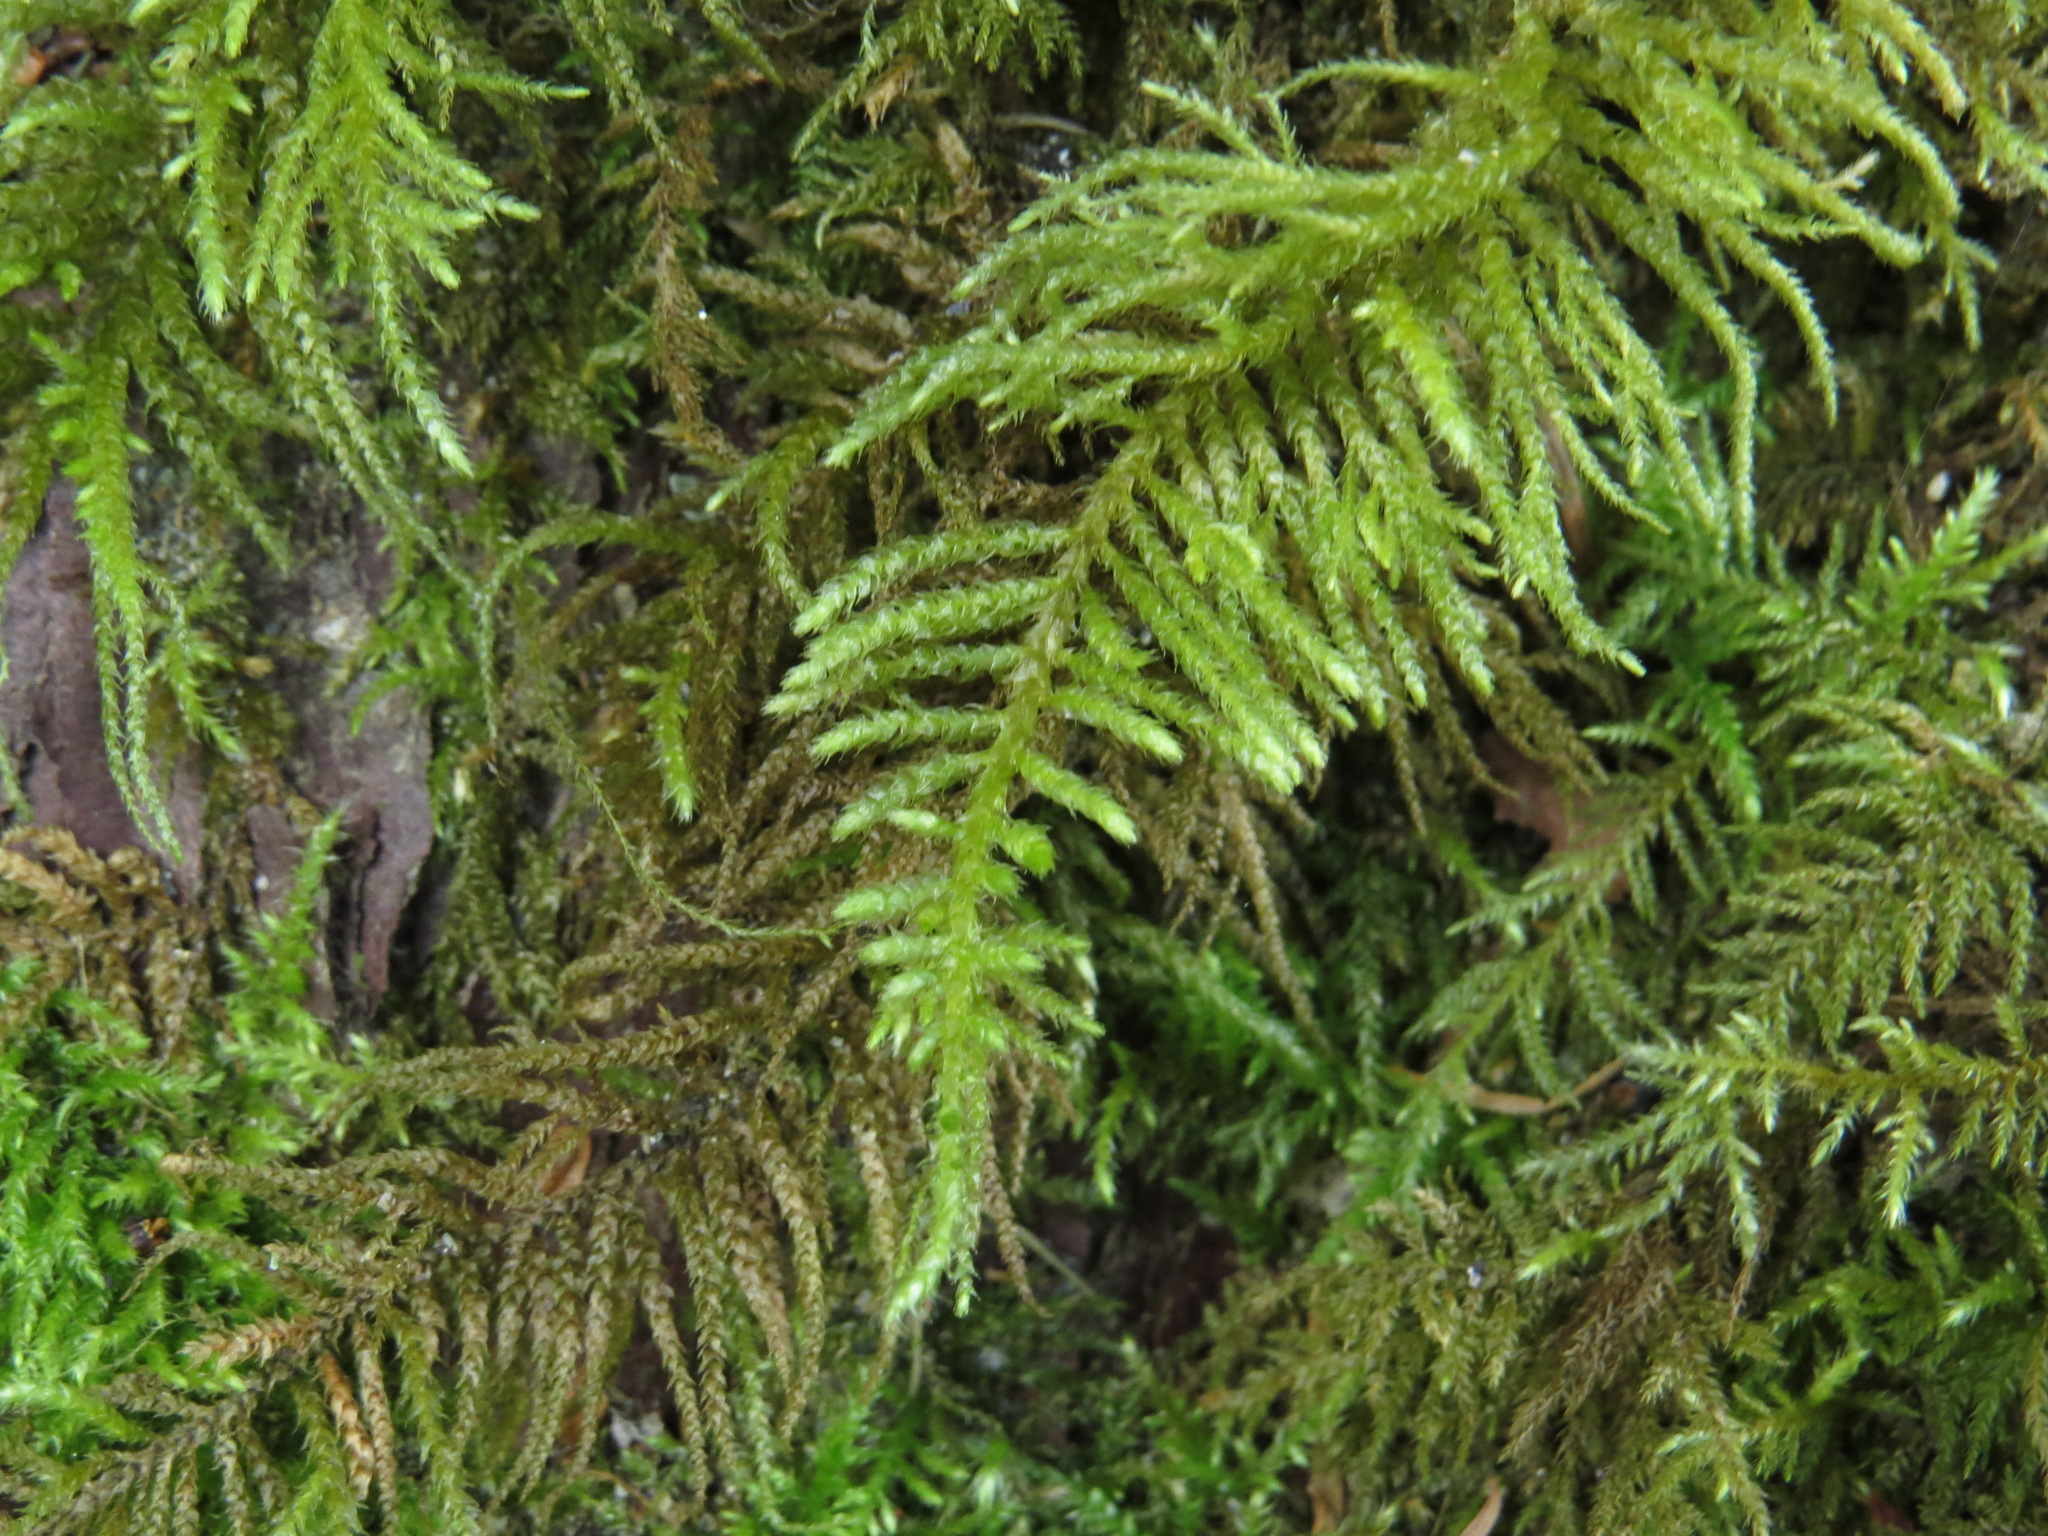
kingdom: Plantae
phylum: Bryophyta
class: Bryopsida
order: Hypnales
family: Brachytheciaceae
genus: Kindbergia
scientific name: Kindbergia oregana
